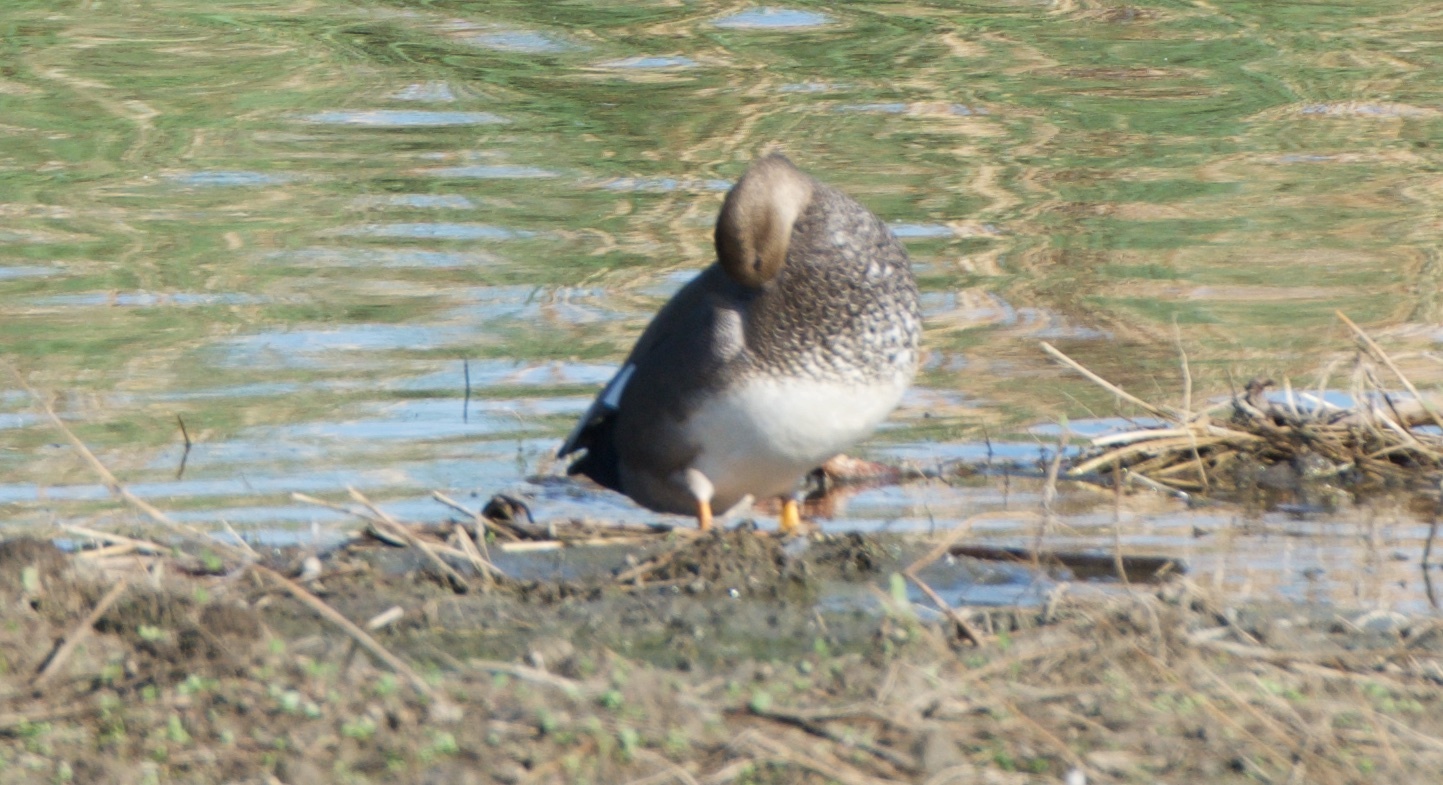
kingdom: Animalia
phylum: Chordata
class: Aves
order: Anseriformes
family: Anatidae
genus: Mareca
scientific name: Mareca strepera
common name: Gadwall
